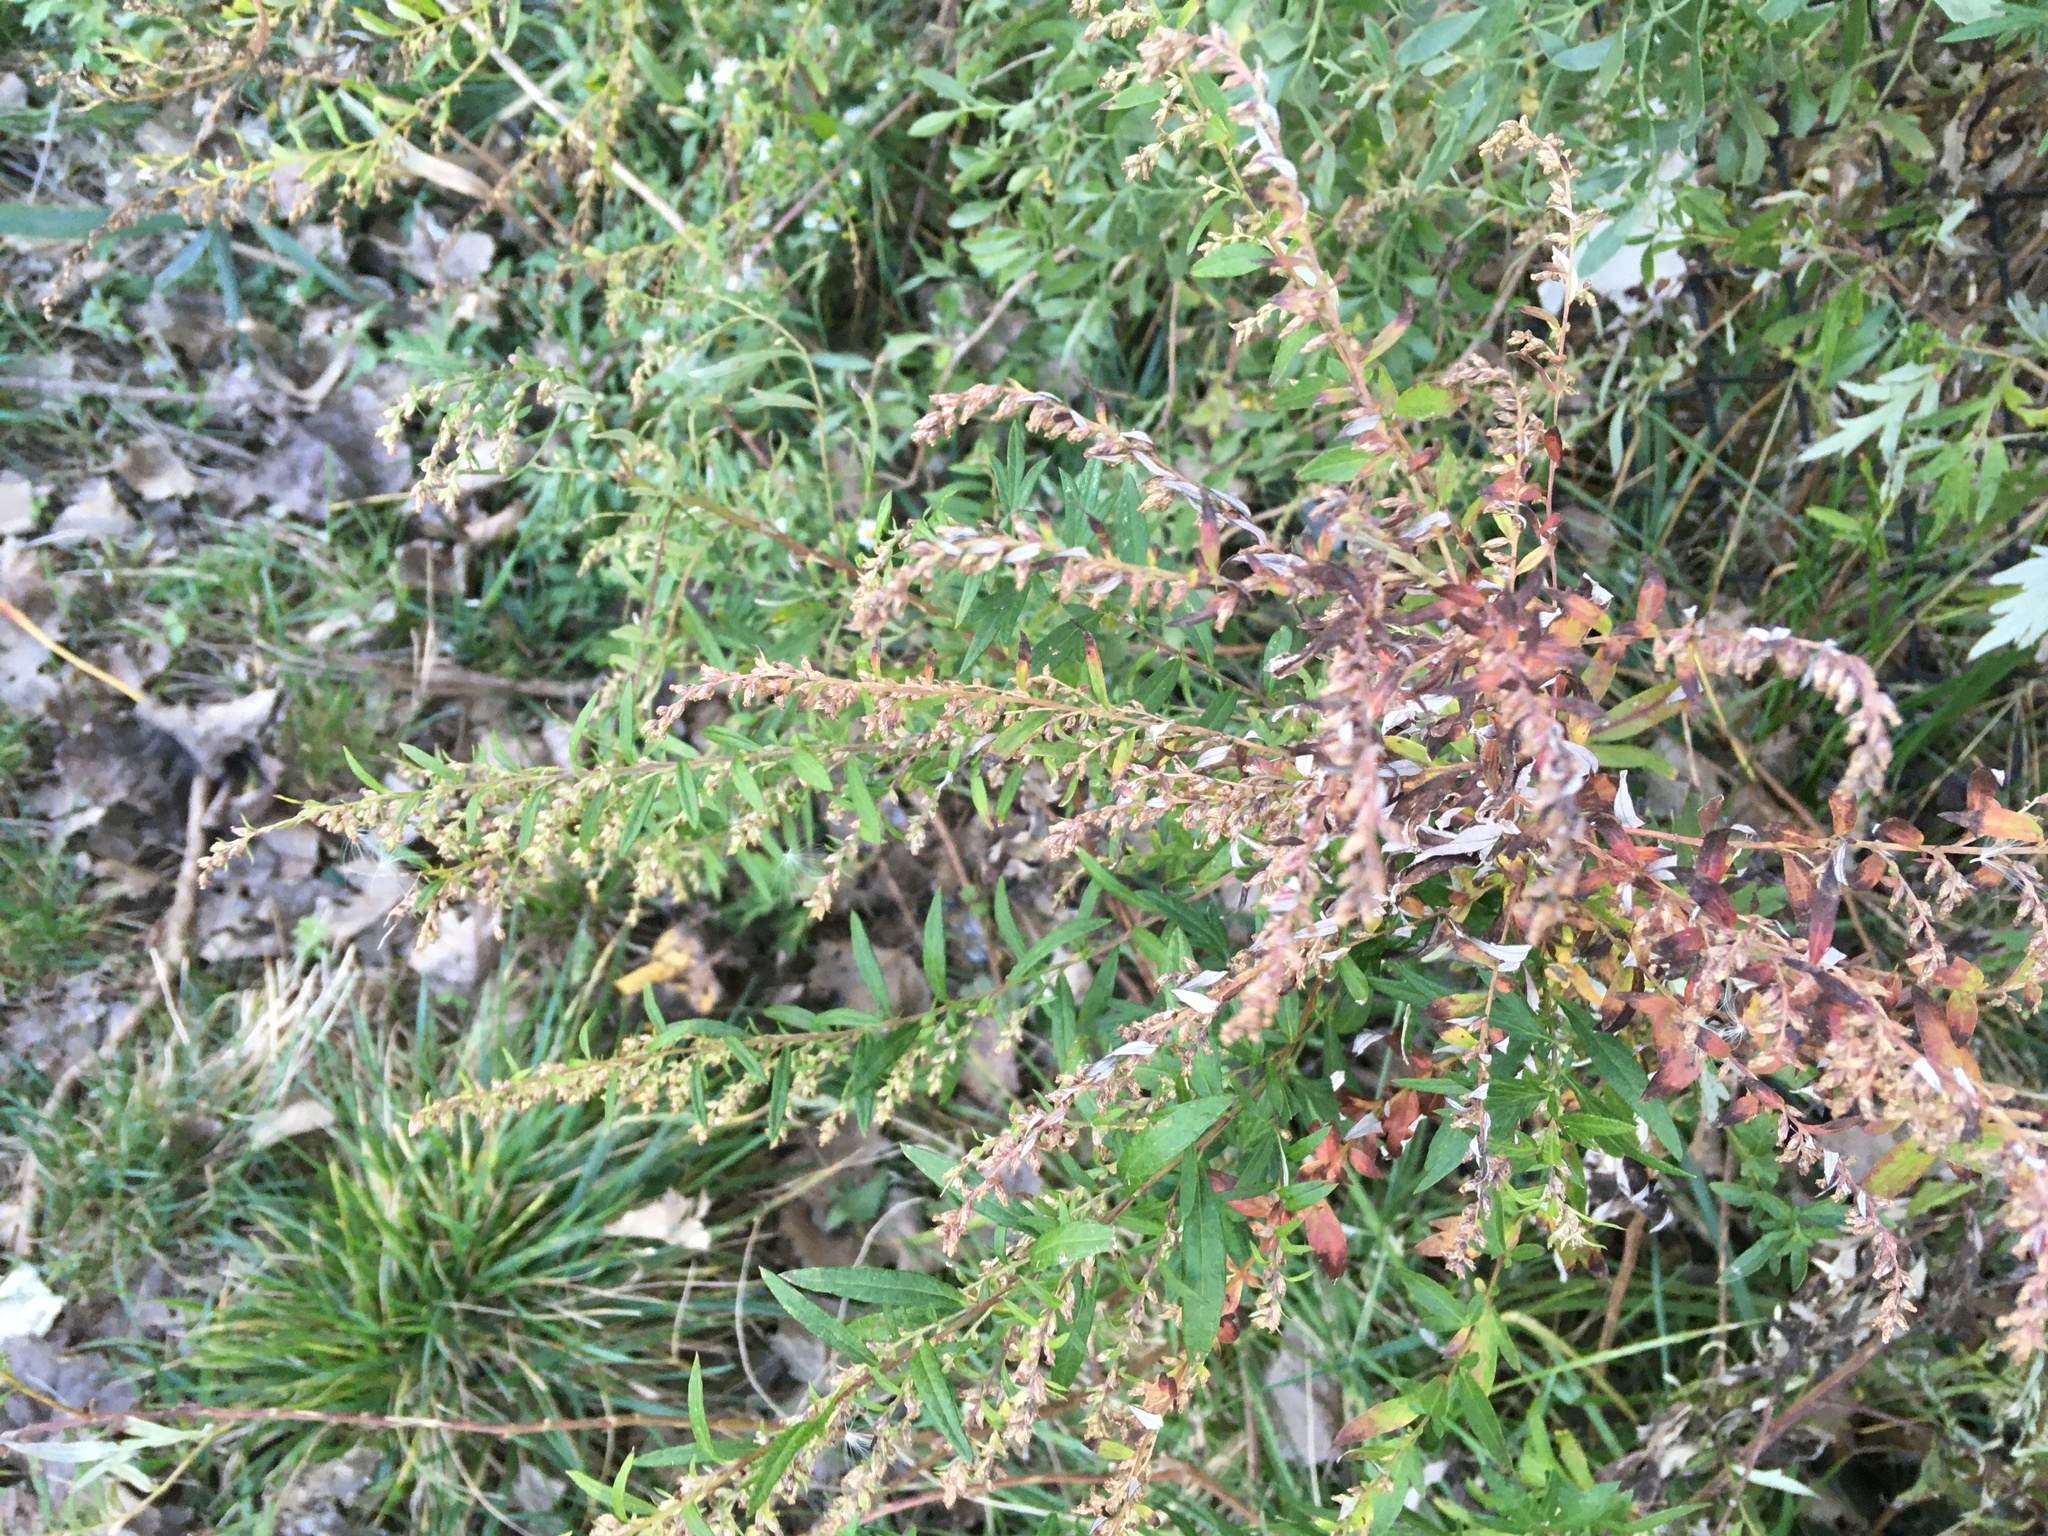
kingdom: Plantae
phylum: Tracheophyta
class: Magnoliopsida
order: Asterales
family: Asteraceae
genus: Artemisia
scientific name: Artemisia vulgaris
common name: Mugwort
